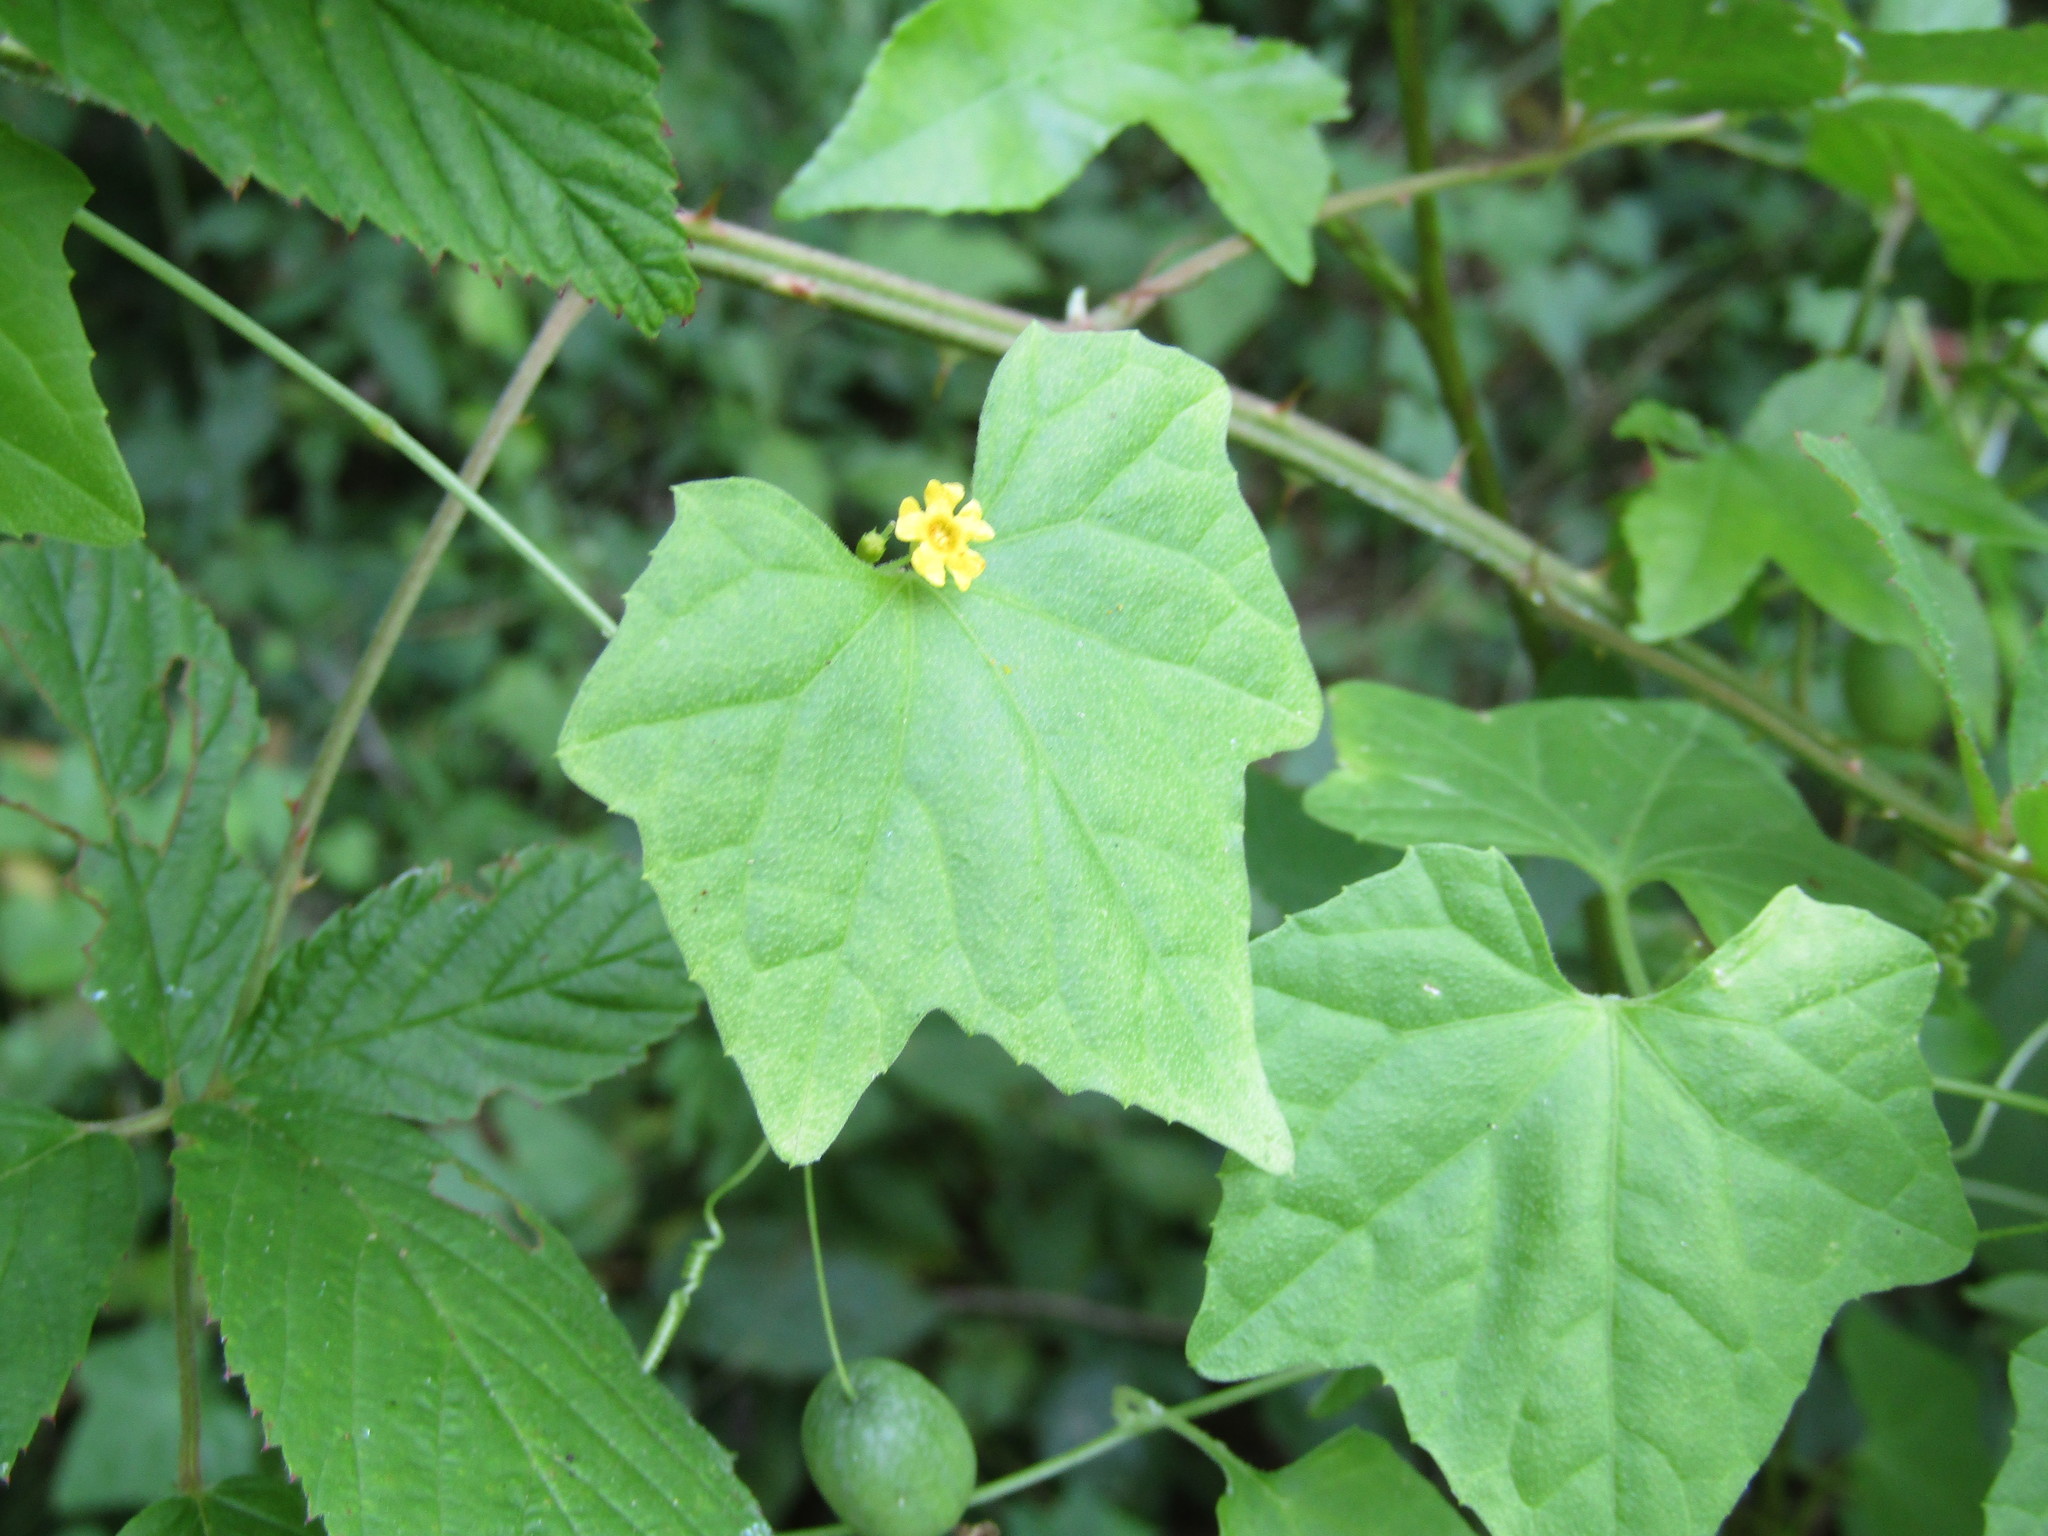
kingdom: Plantae
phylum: Tracheophyta
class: Magnoliopsida
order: Cucurbitales
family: Cucurbitaceae
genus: Melothria
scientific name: Melothria pendula
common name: Creeping-cucumber
